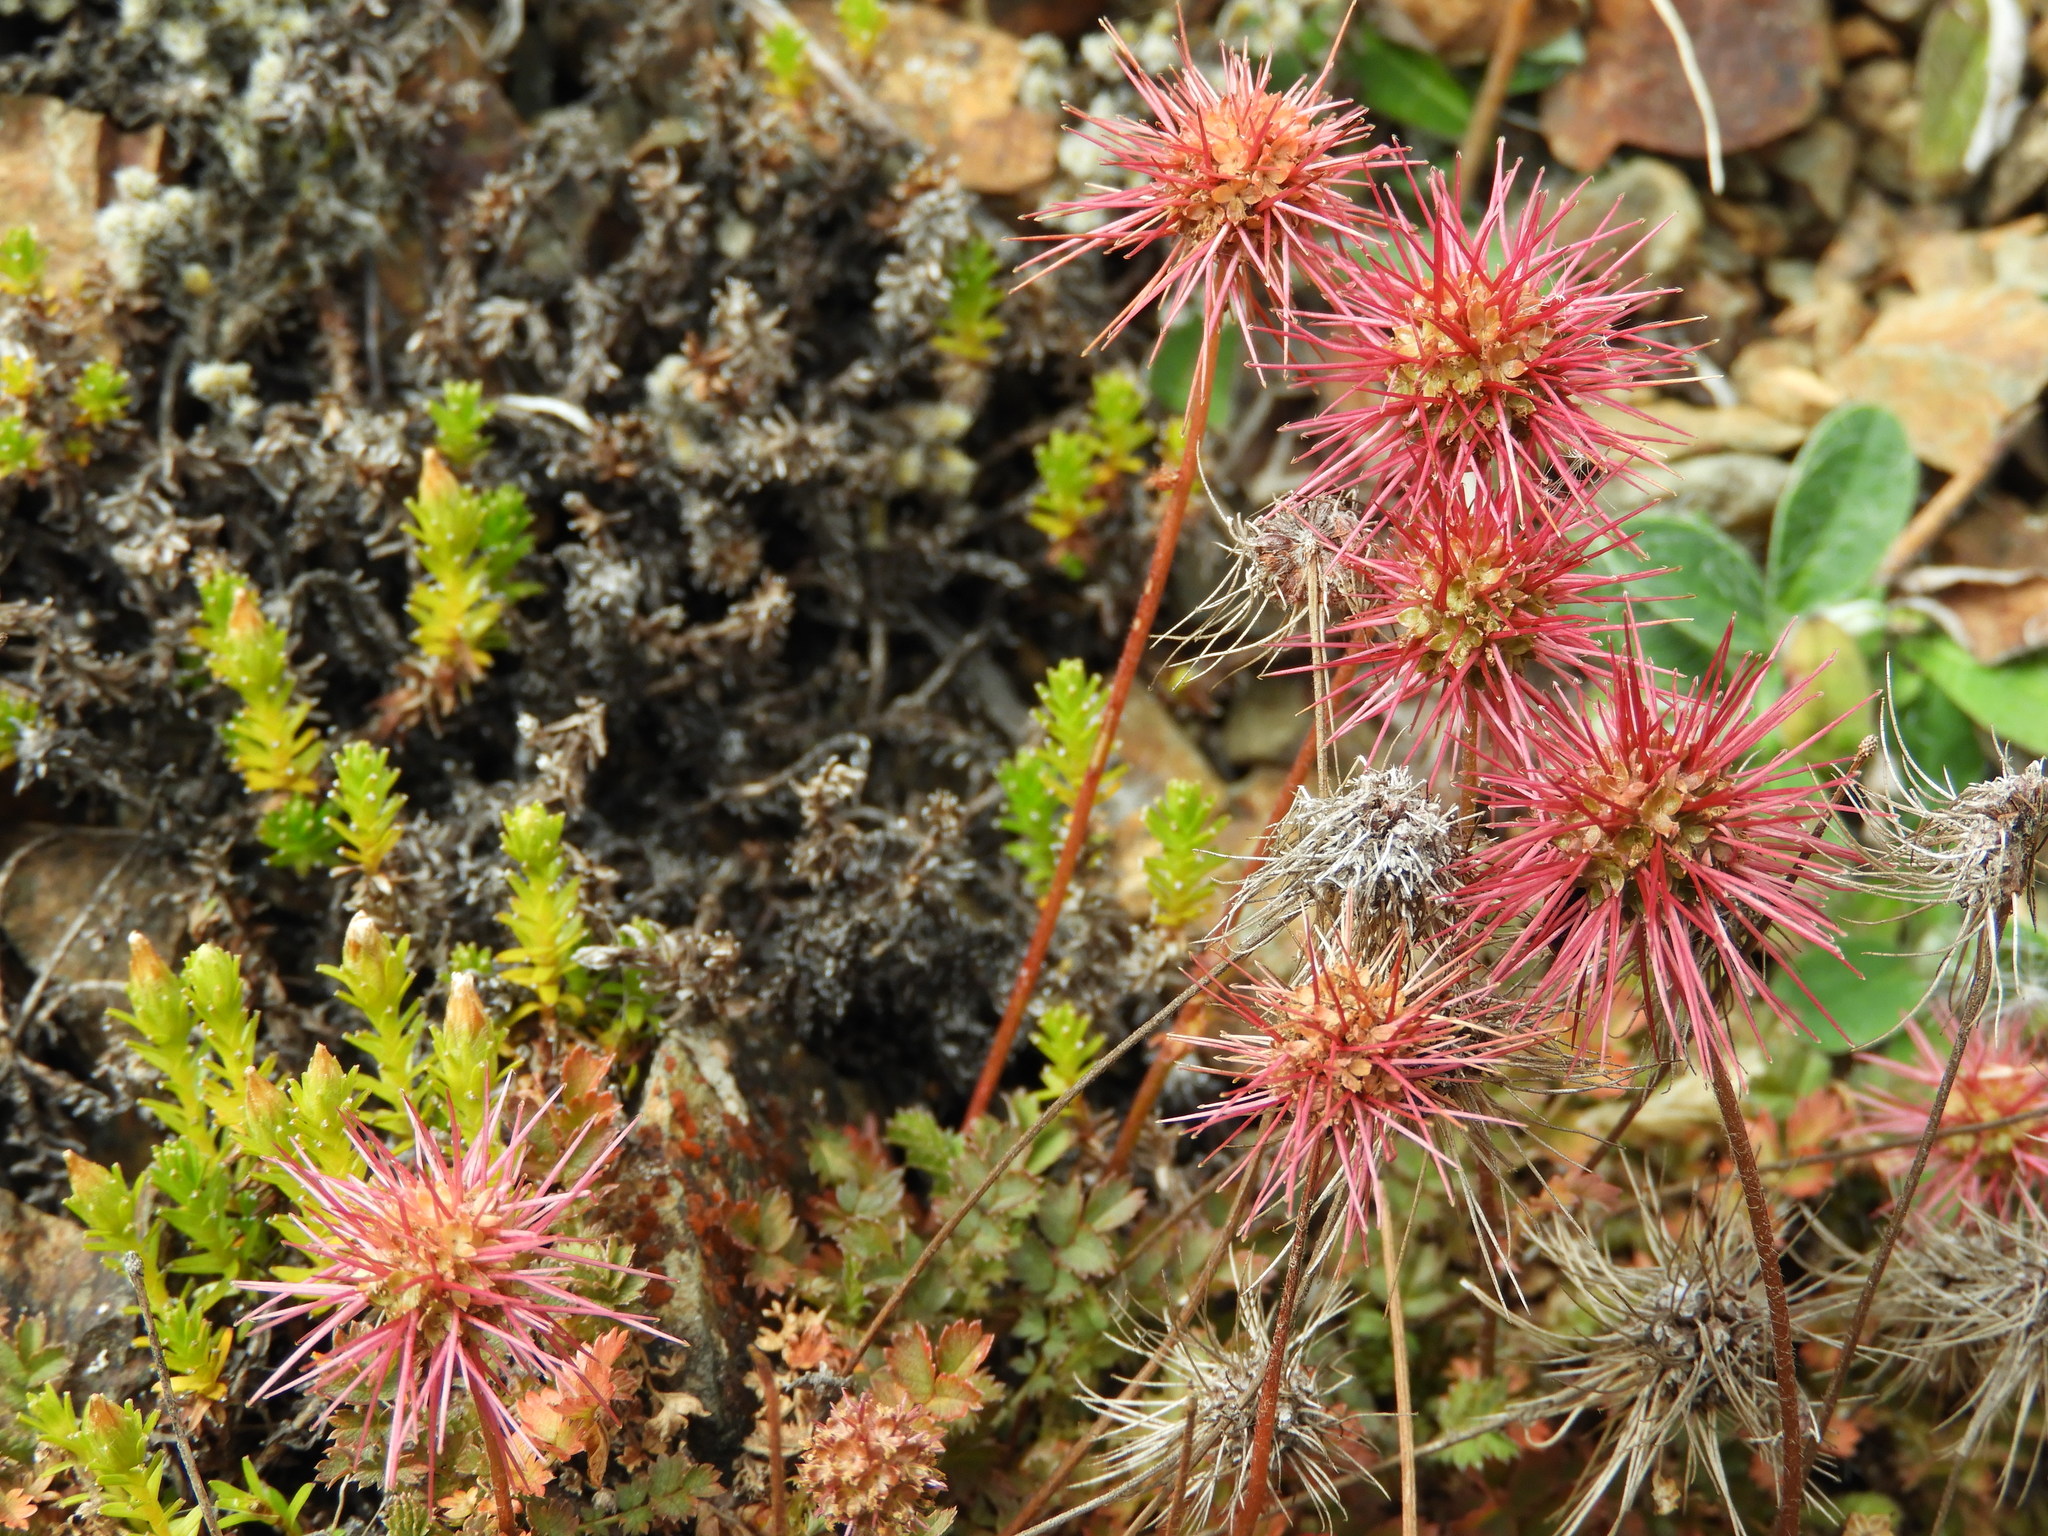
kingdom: Plantae
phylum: Tracheophyta
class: Magnoliopsida
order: Rosales
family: Rosaceae
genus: Acaena
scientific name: Acaena inermis
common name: Spineless acaena
